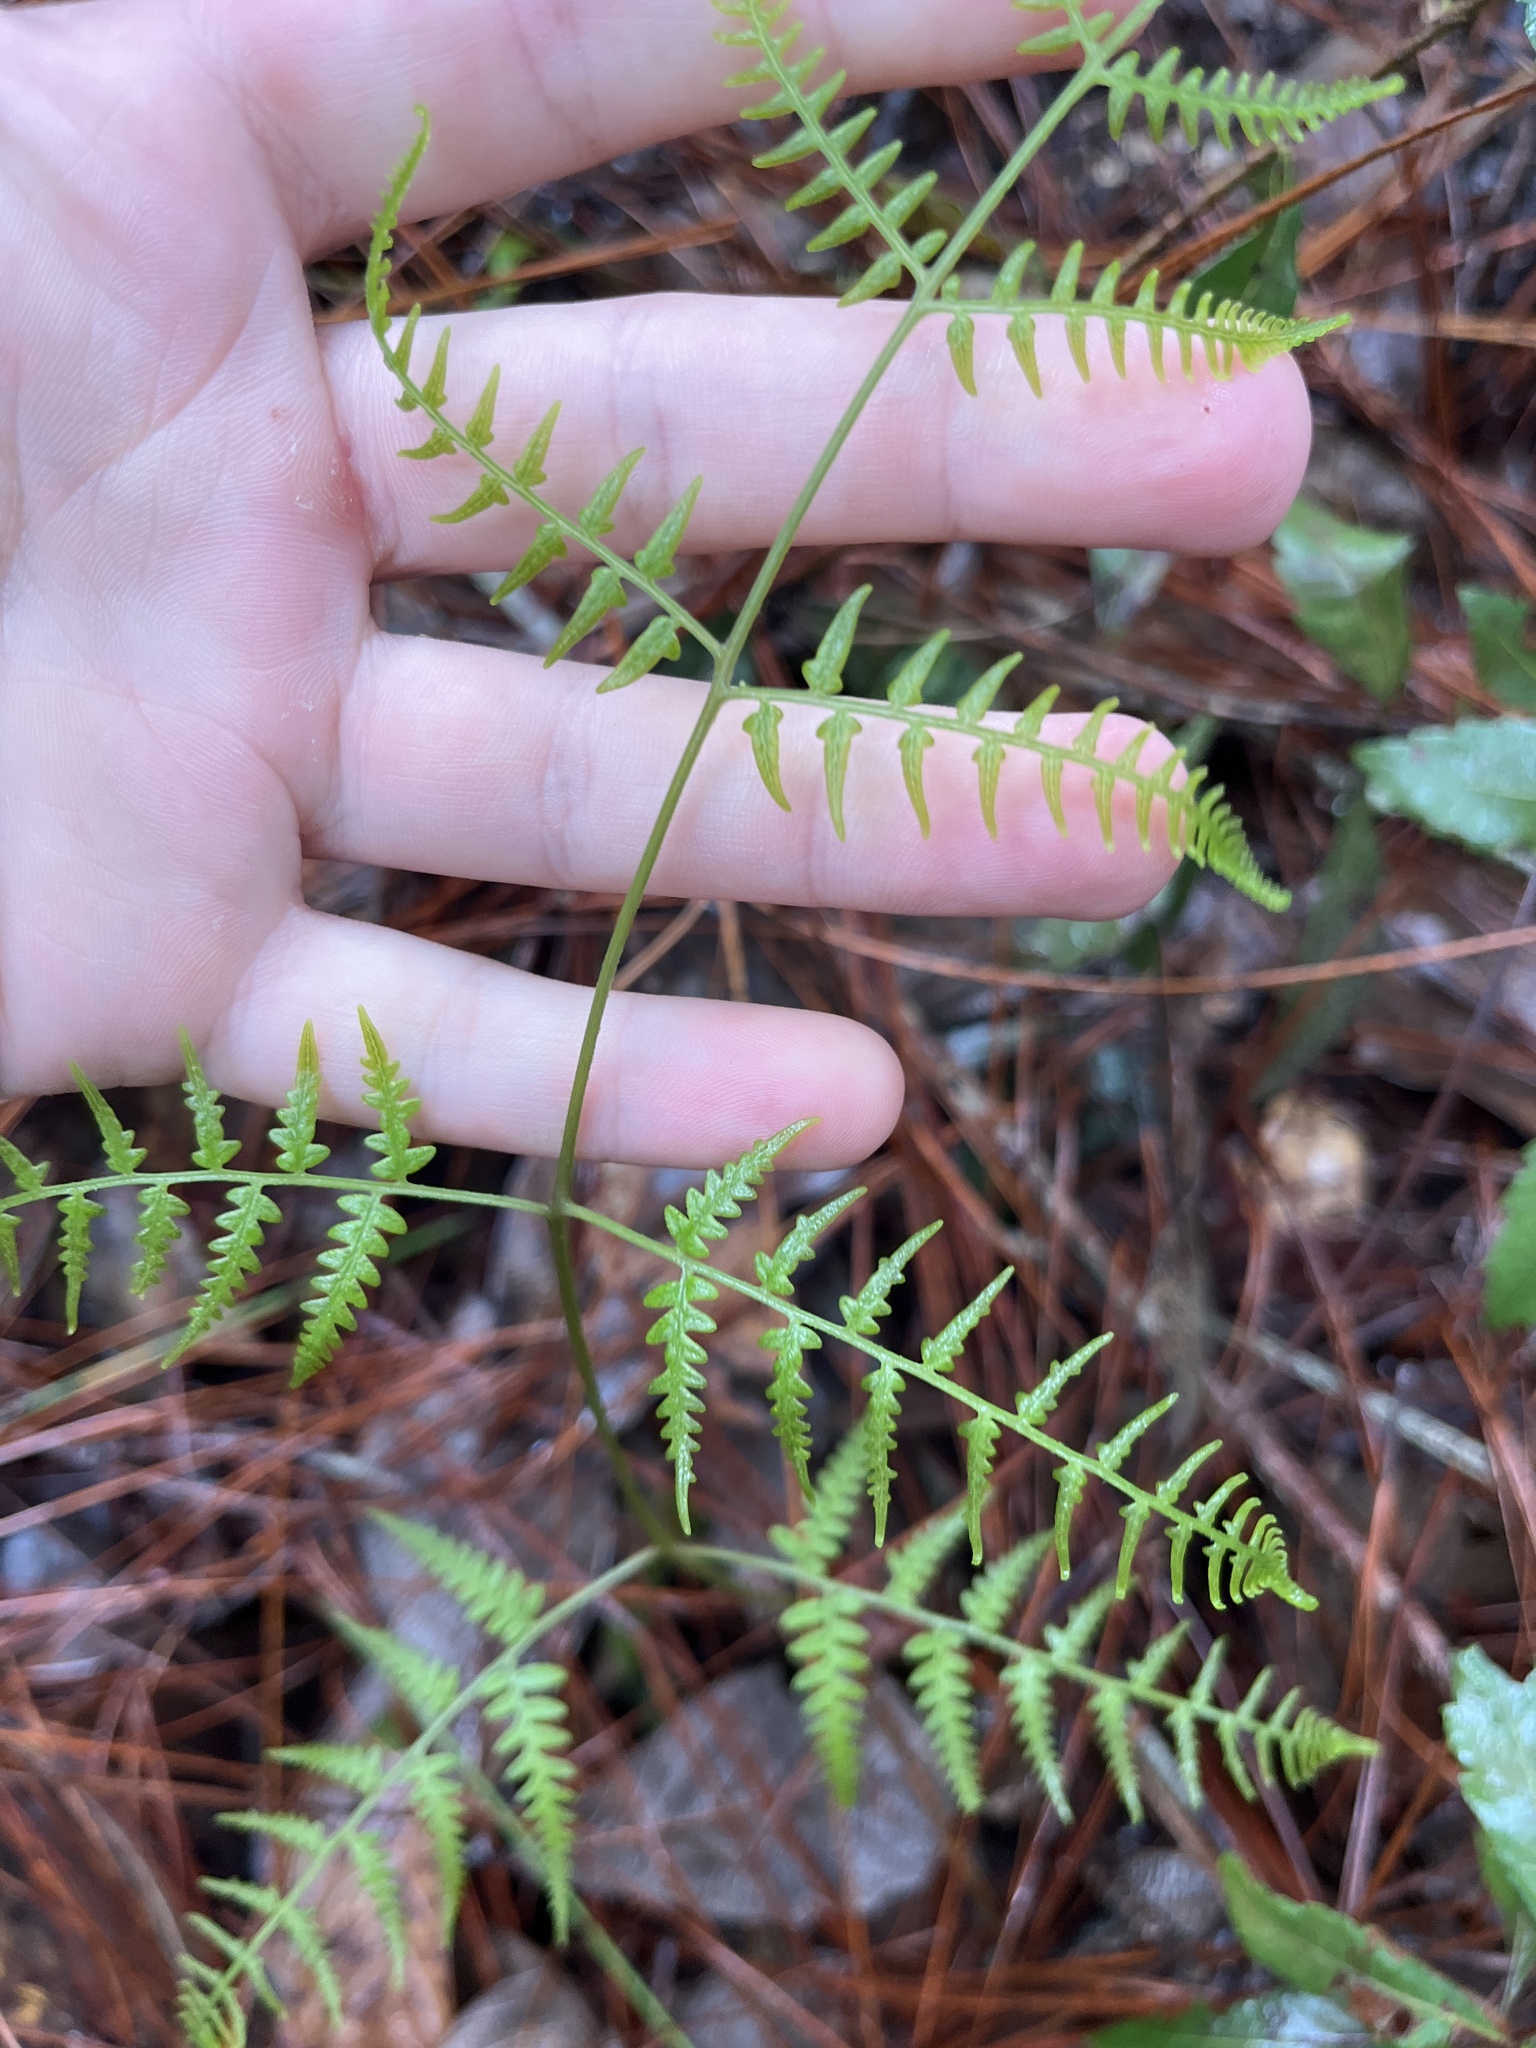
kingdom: Plantae
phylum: Tracheophyta
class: Polypodiopsida
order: Polypodiales
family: Dennstaedtiaceae
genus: Pteridium
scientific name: Pteridium esculentum
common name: Bracken fern
